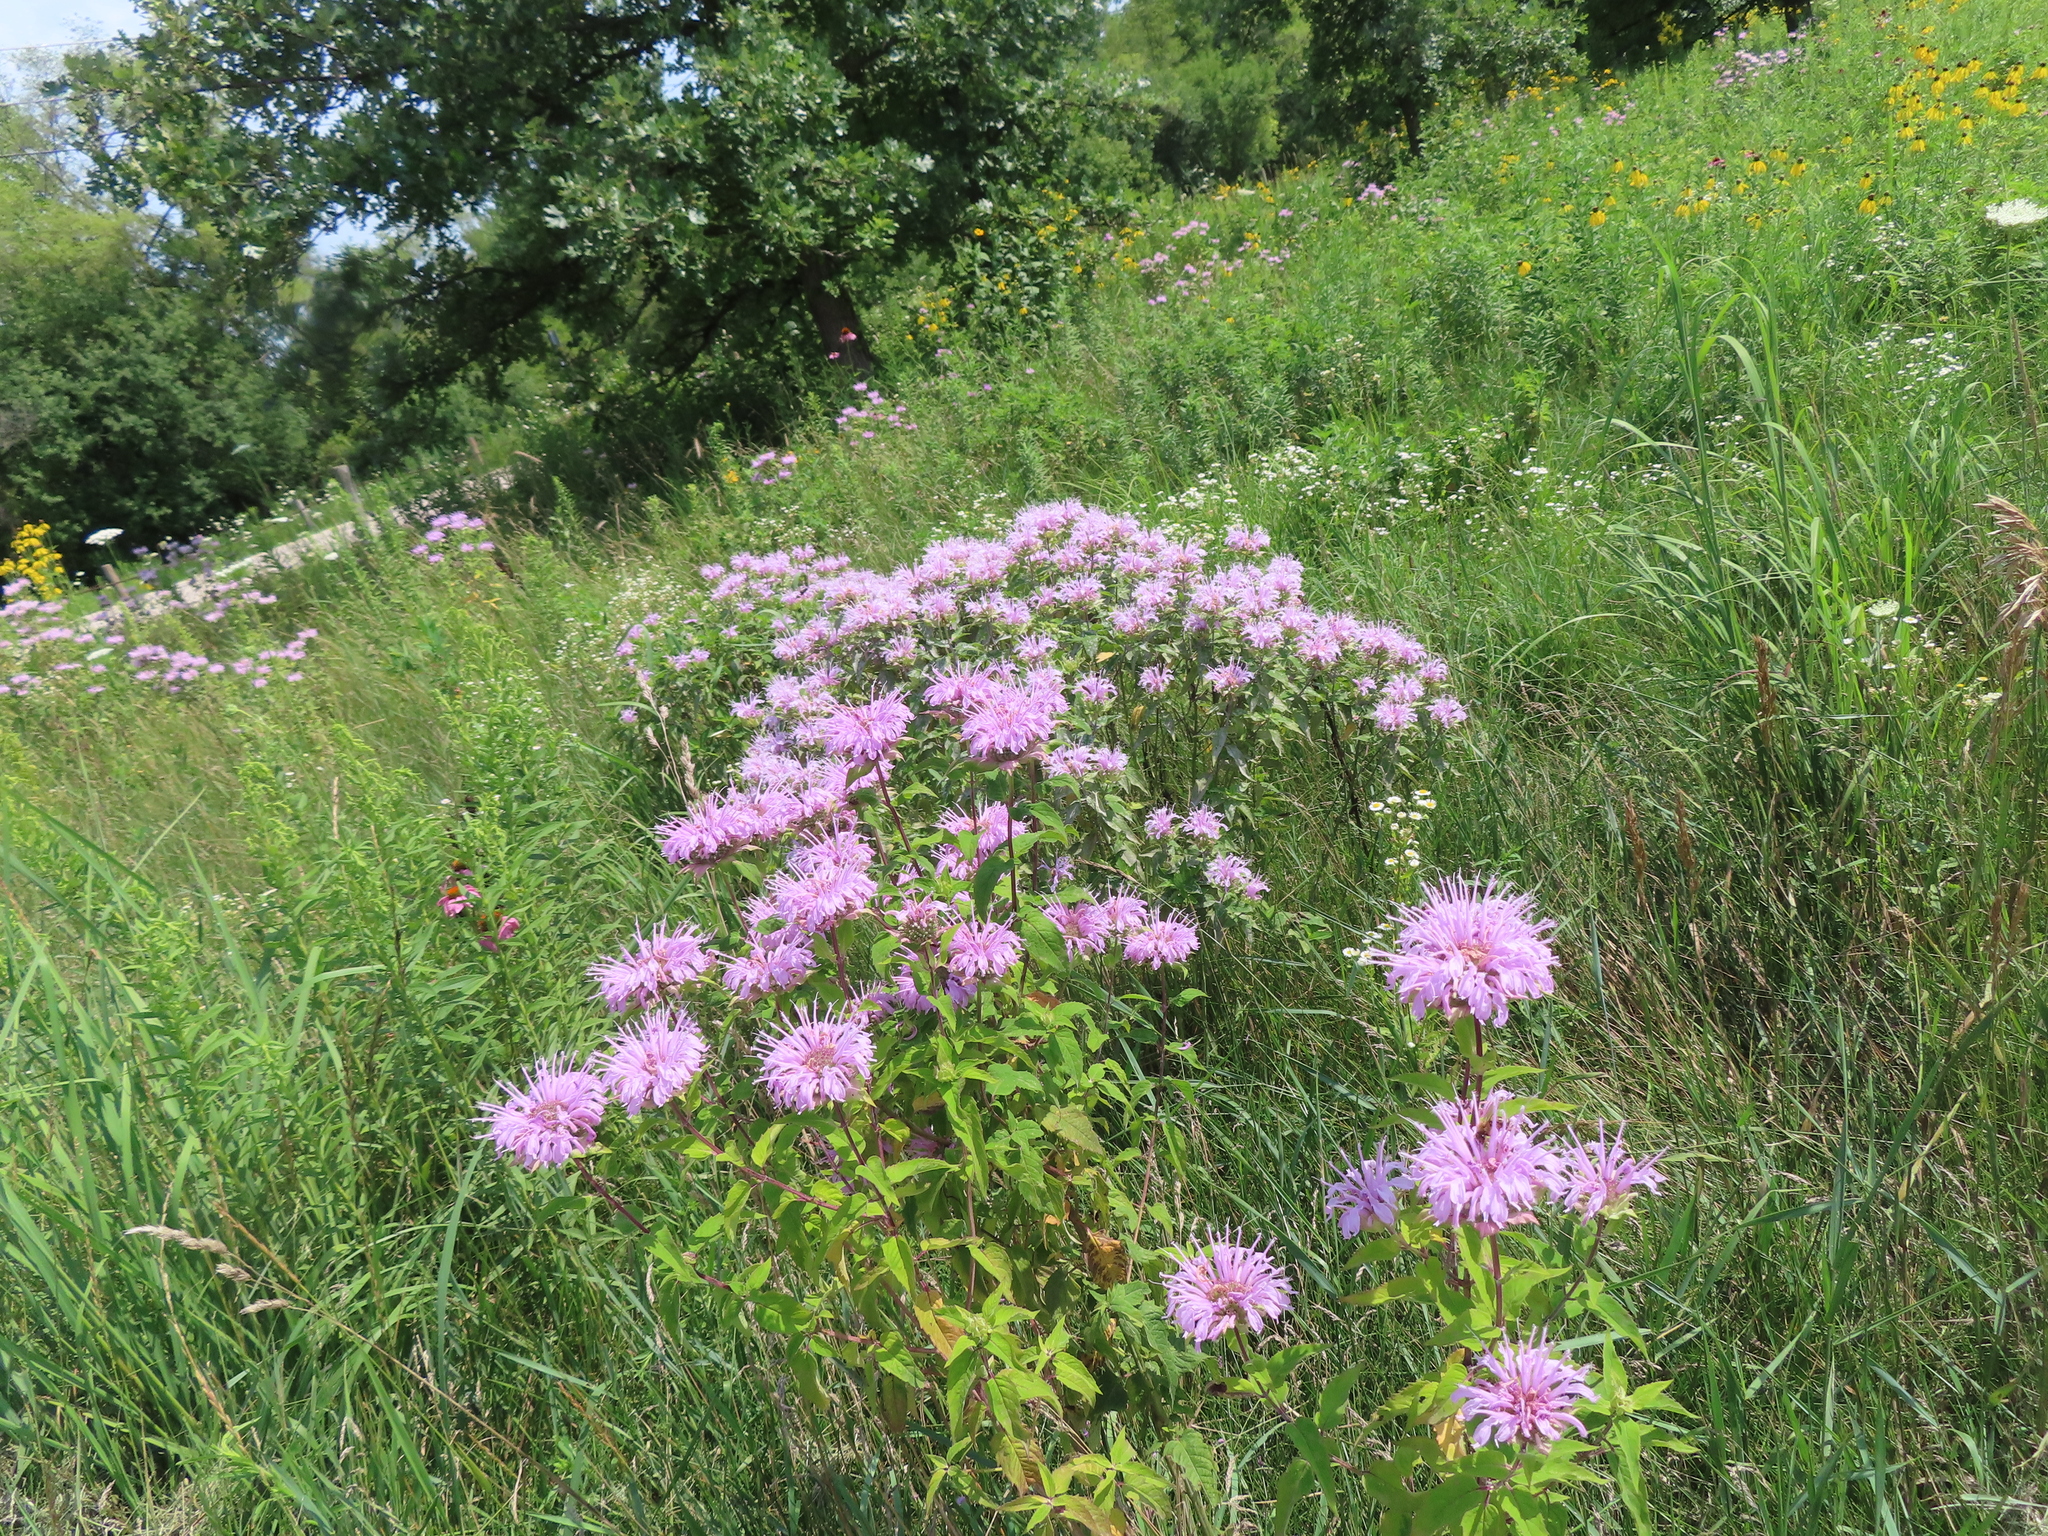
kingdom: Plantae
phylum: Tracheophyta
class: Magnoliopsida
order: Lamiales
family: Lamiaceae
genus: Monarda
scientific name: Monarda fistulosa
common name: Purple beebalm
